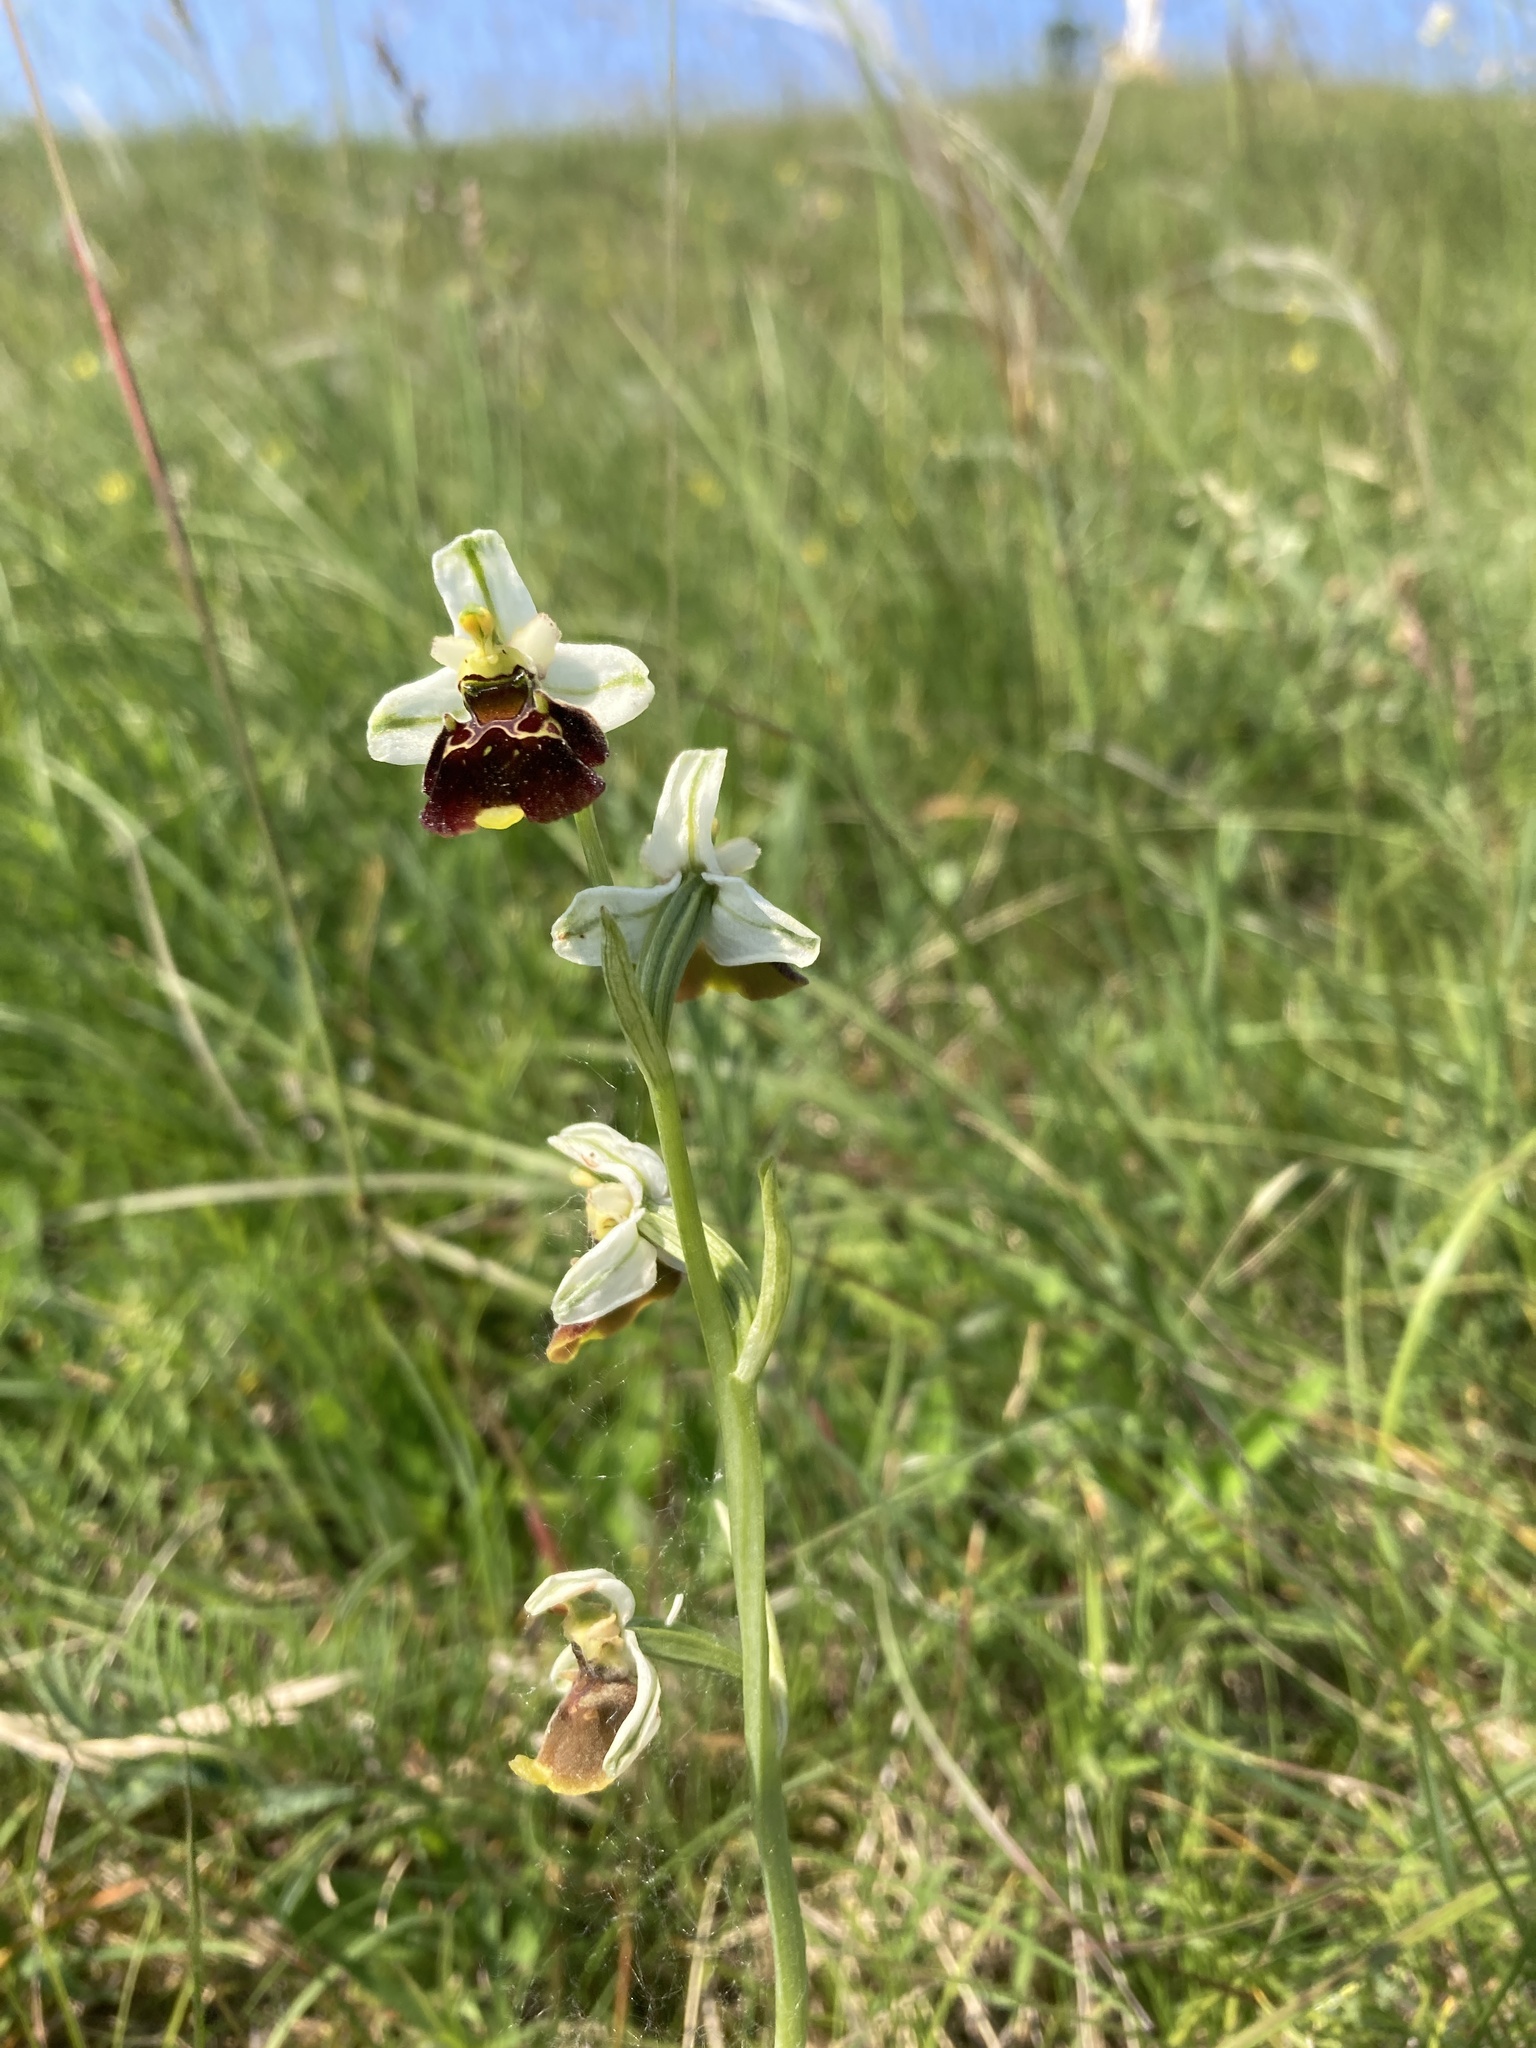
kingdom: Plantae
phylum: Tracheophyta
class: Liliopsida
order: Asparagales
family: Orchidaceae
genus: Ophrys
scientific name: Ophrys holosericea
